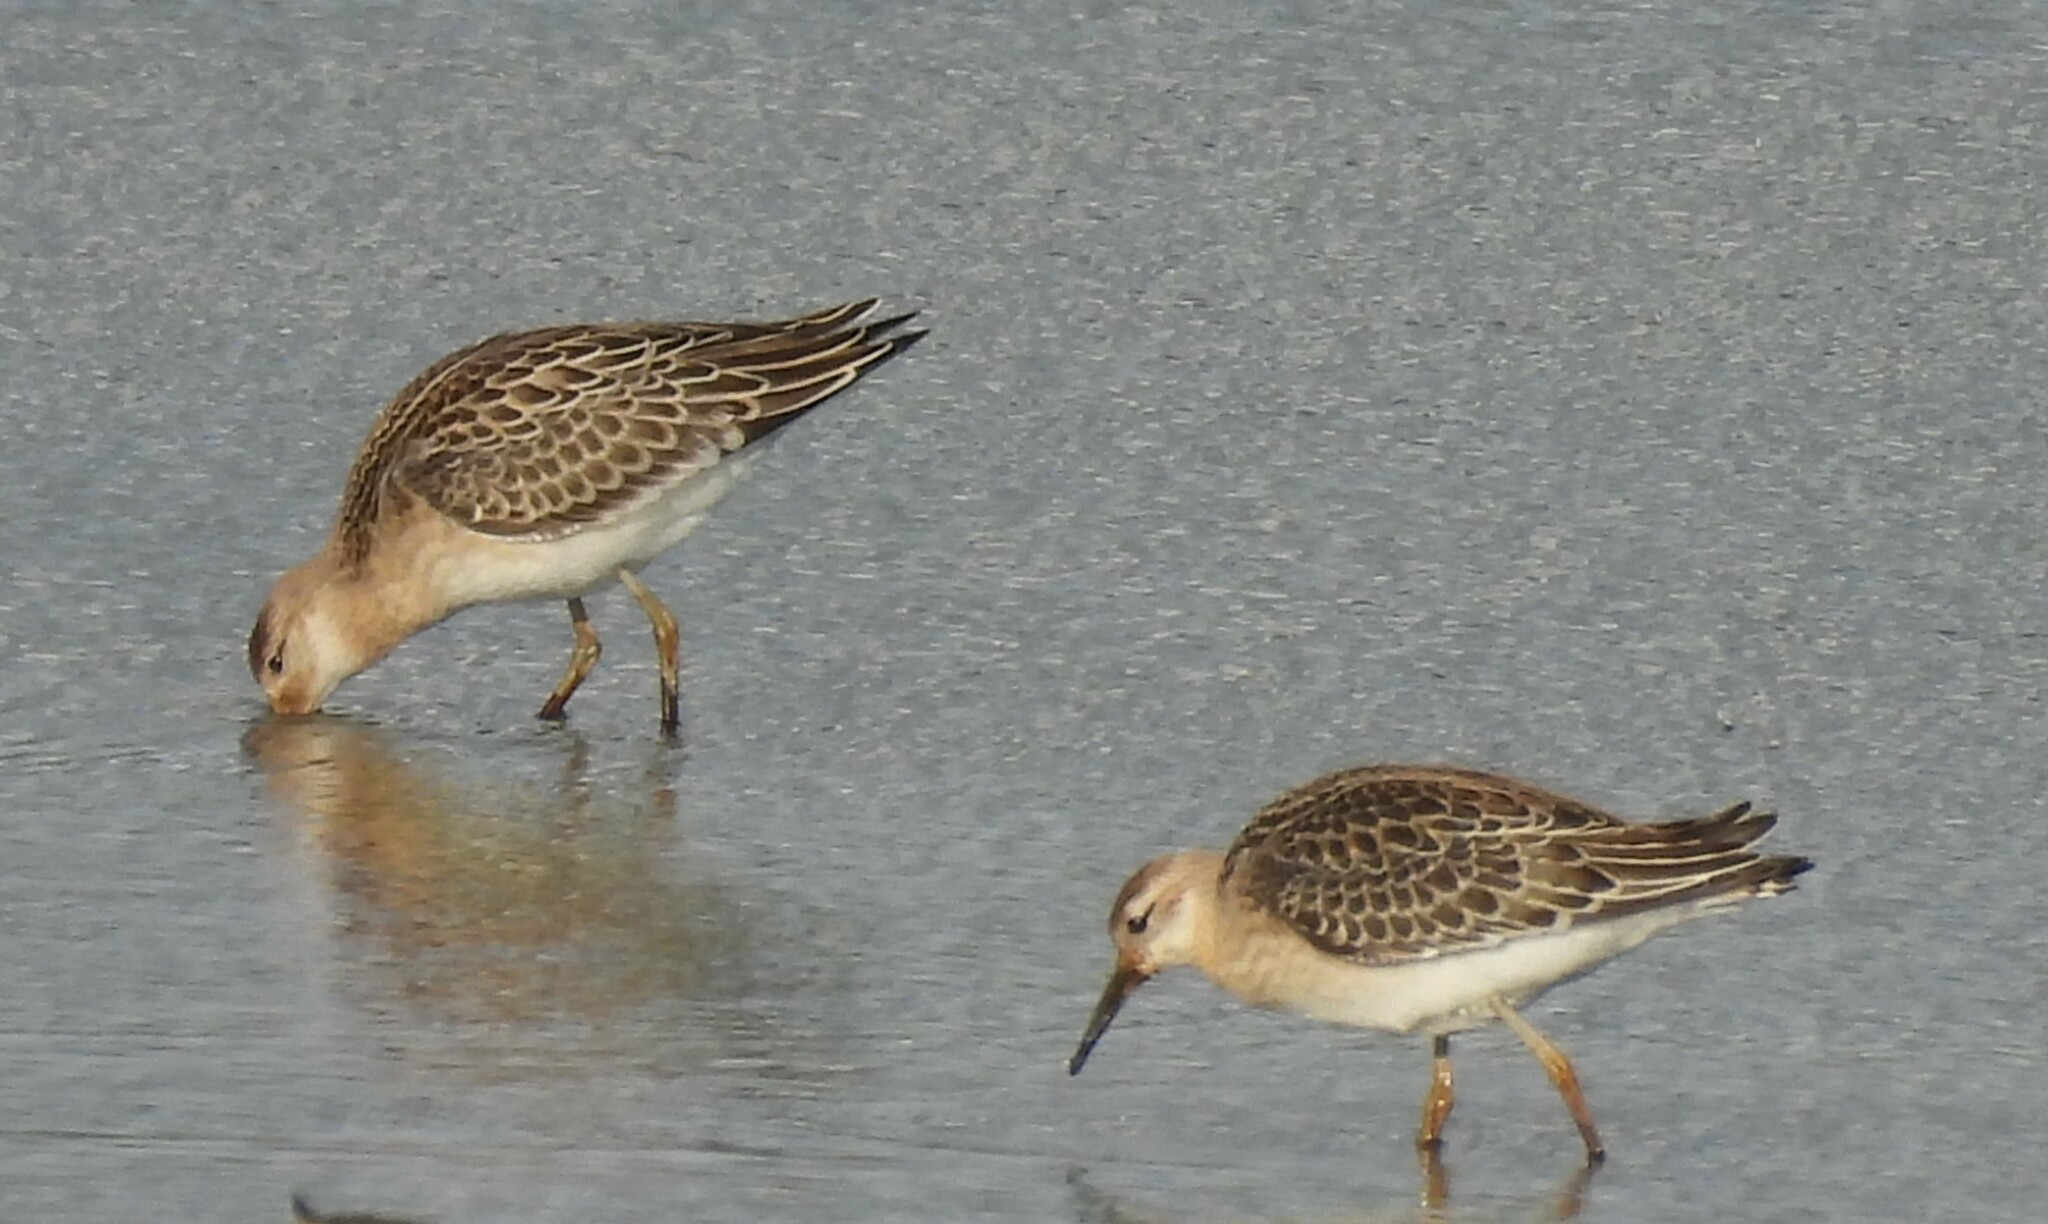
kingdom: Animalia
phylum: Chordata
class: Aves
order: Charadriiformes
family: Scolopacidae
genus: Calidris
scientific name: Calidris pugnax
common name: Ruff
